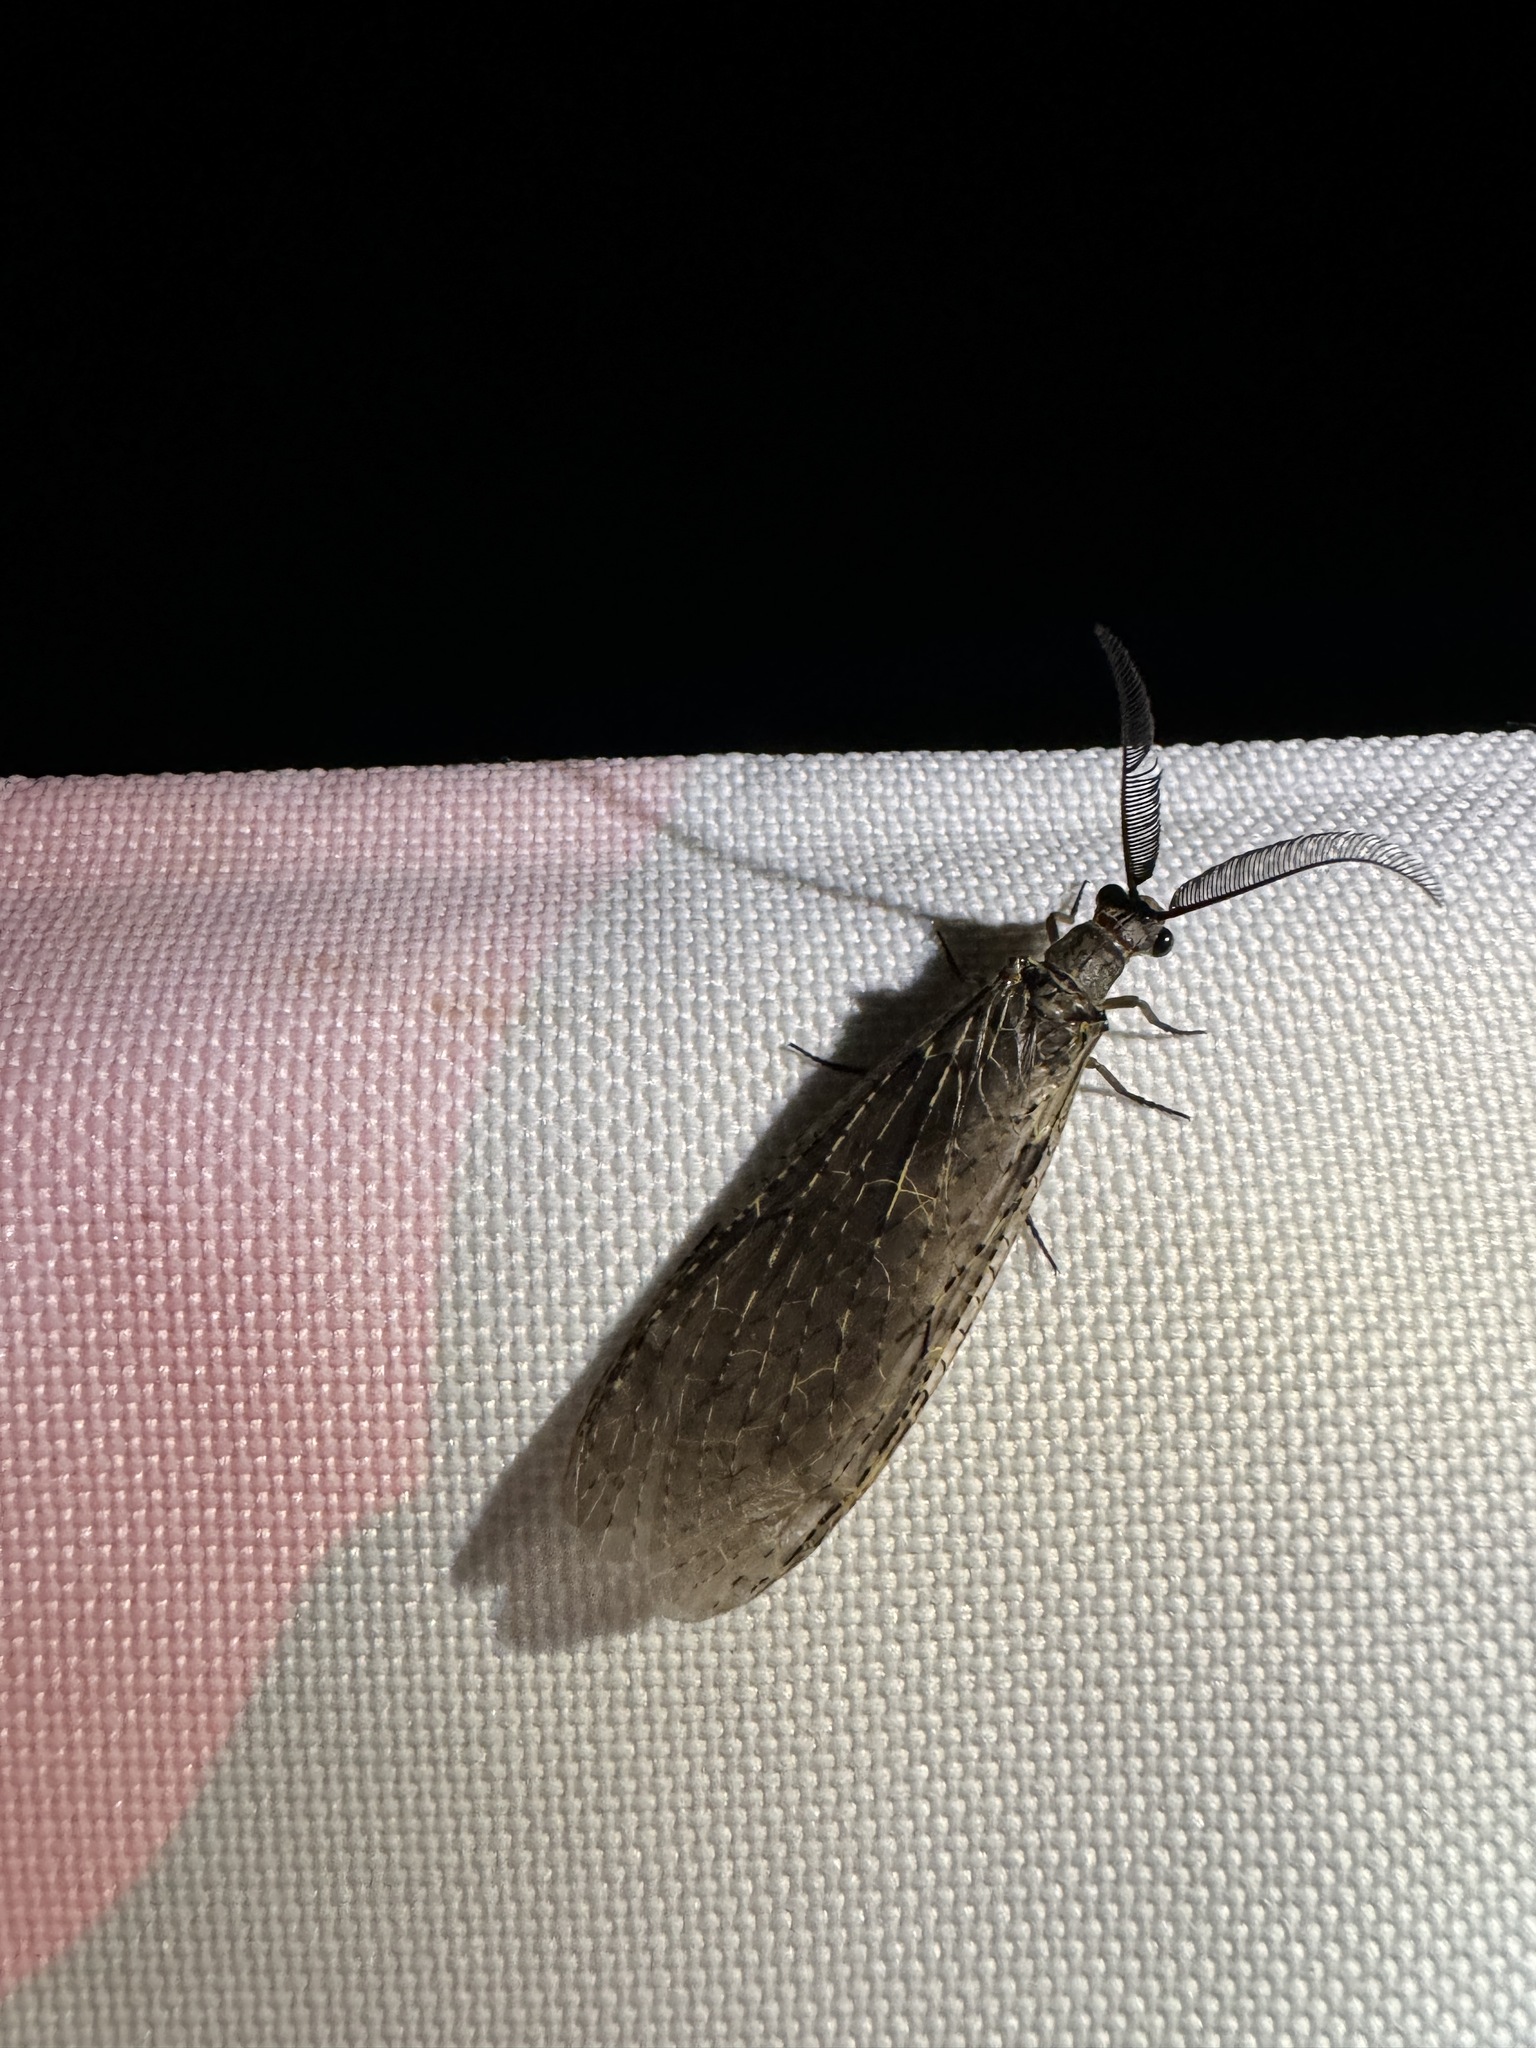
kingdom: Animalia
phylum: Arthropoda
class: Insecta
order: Megaloptera
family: Corydalidae
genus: Chauliodes
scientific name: Chauliodes rastricornis
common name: Spring fishfly
